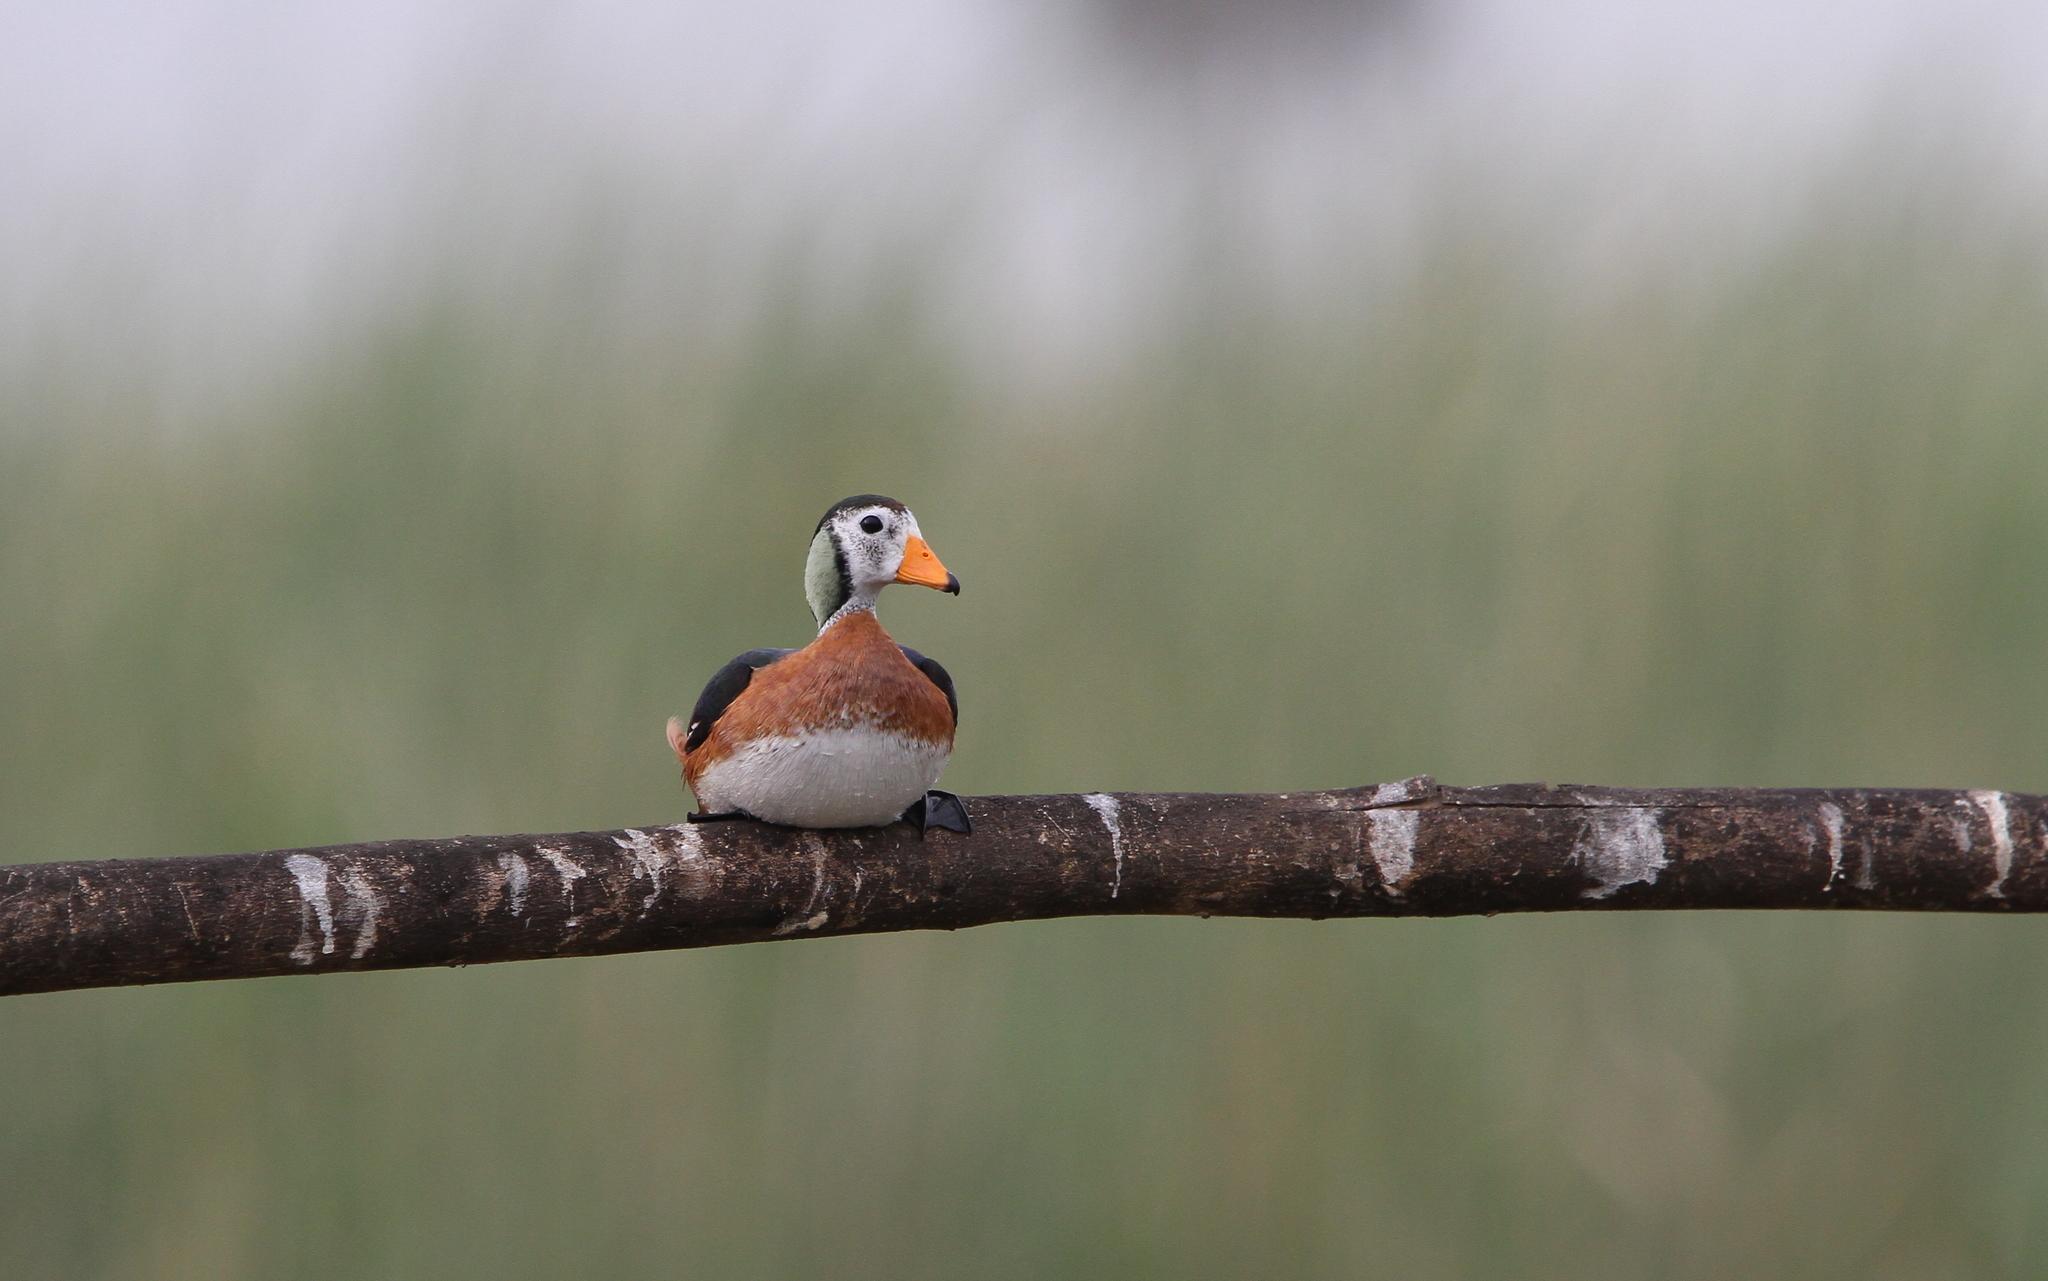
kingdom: Animalia
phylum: Chordata
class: Aves
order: Anseriformes
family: Anatidae
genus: Nettapus
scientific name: Nettapus auritus
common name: African pygmy-goose
